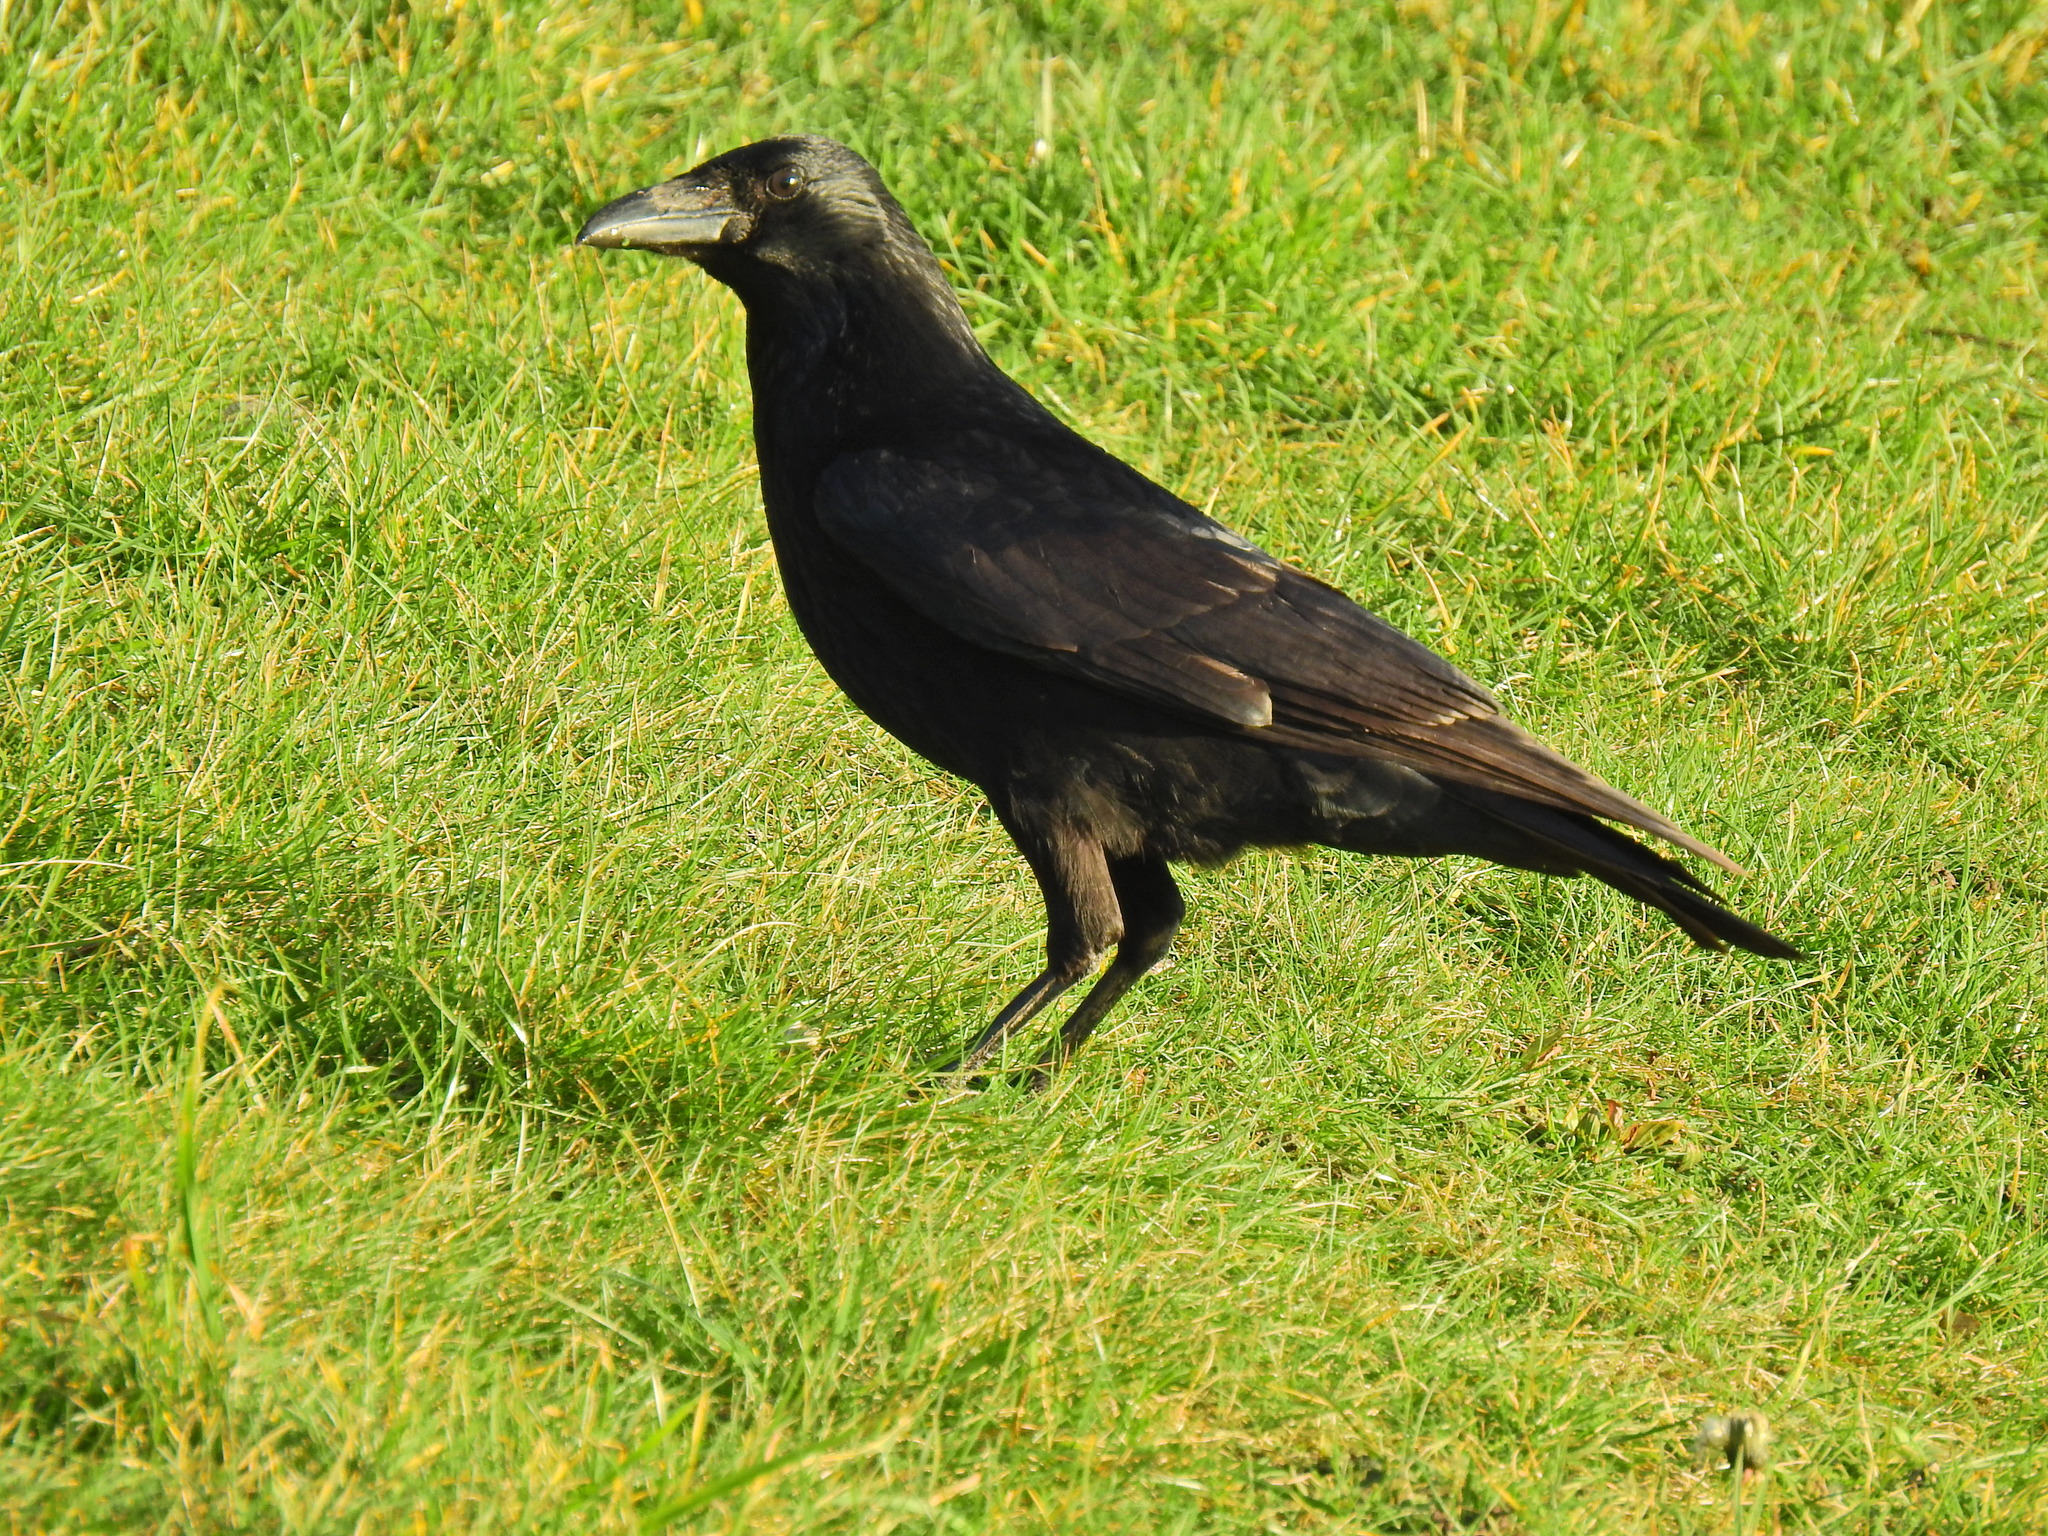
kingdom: Animalia
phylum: Chordata
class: Aves
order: Passeriformes
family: Corvidae
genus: Corvus
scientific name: Corvus corone
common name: Carrion crow
